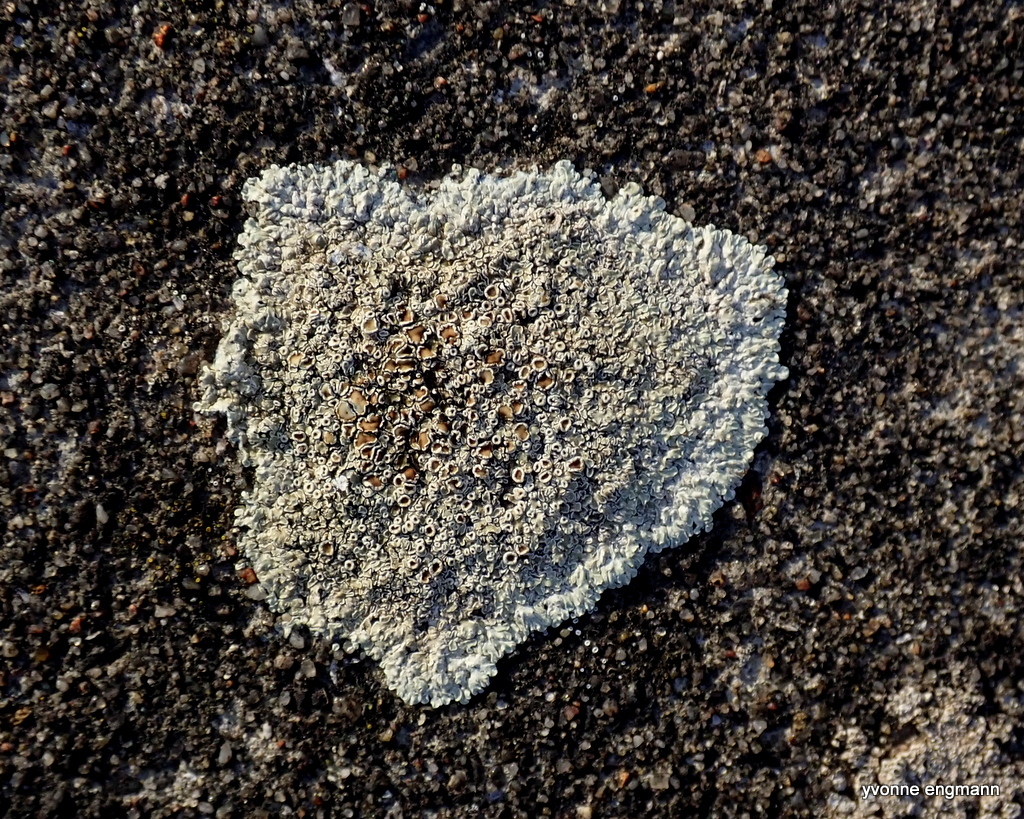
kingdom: Fungi
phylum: Ascomycota
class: Lecanoromycetes
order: Lecanorales
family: Lecanoraceae
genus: Protoparmeliopsis
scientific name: Protoparmeliopsis muralis
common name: Stonewall rim lichen
